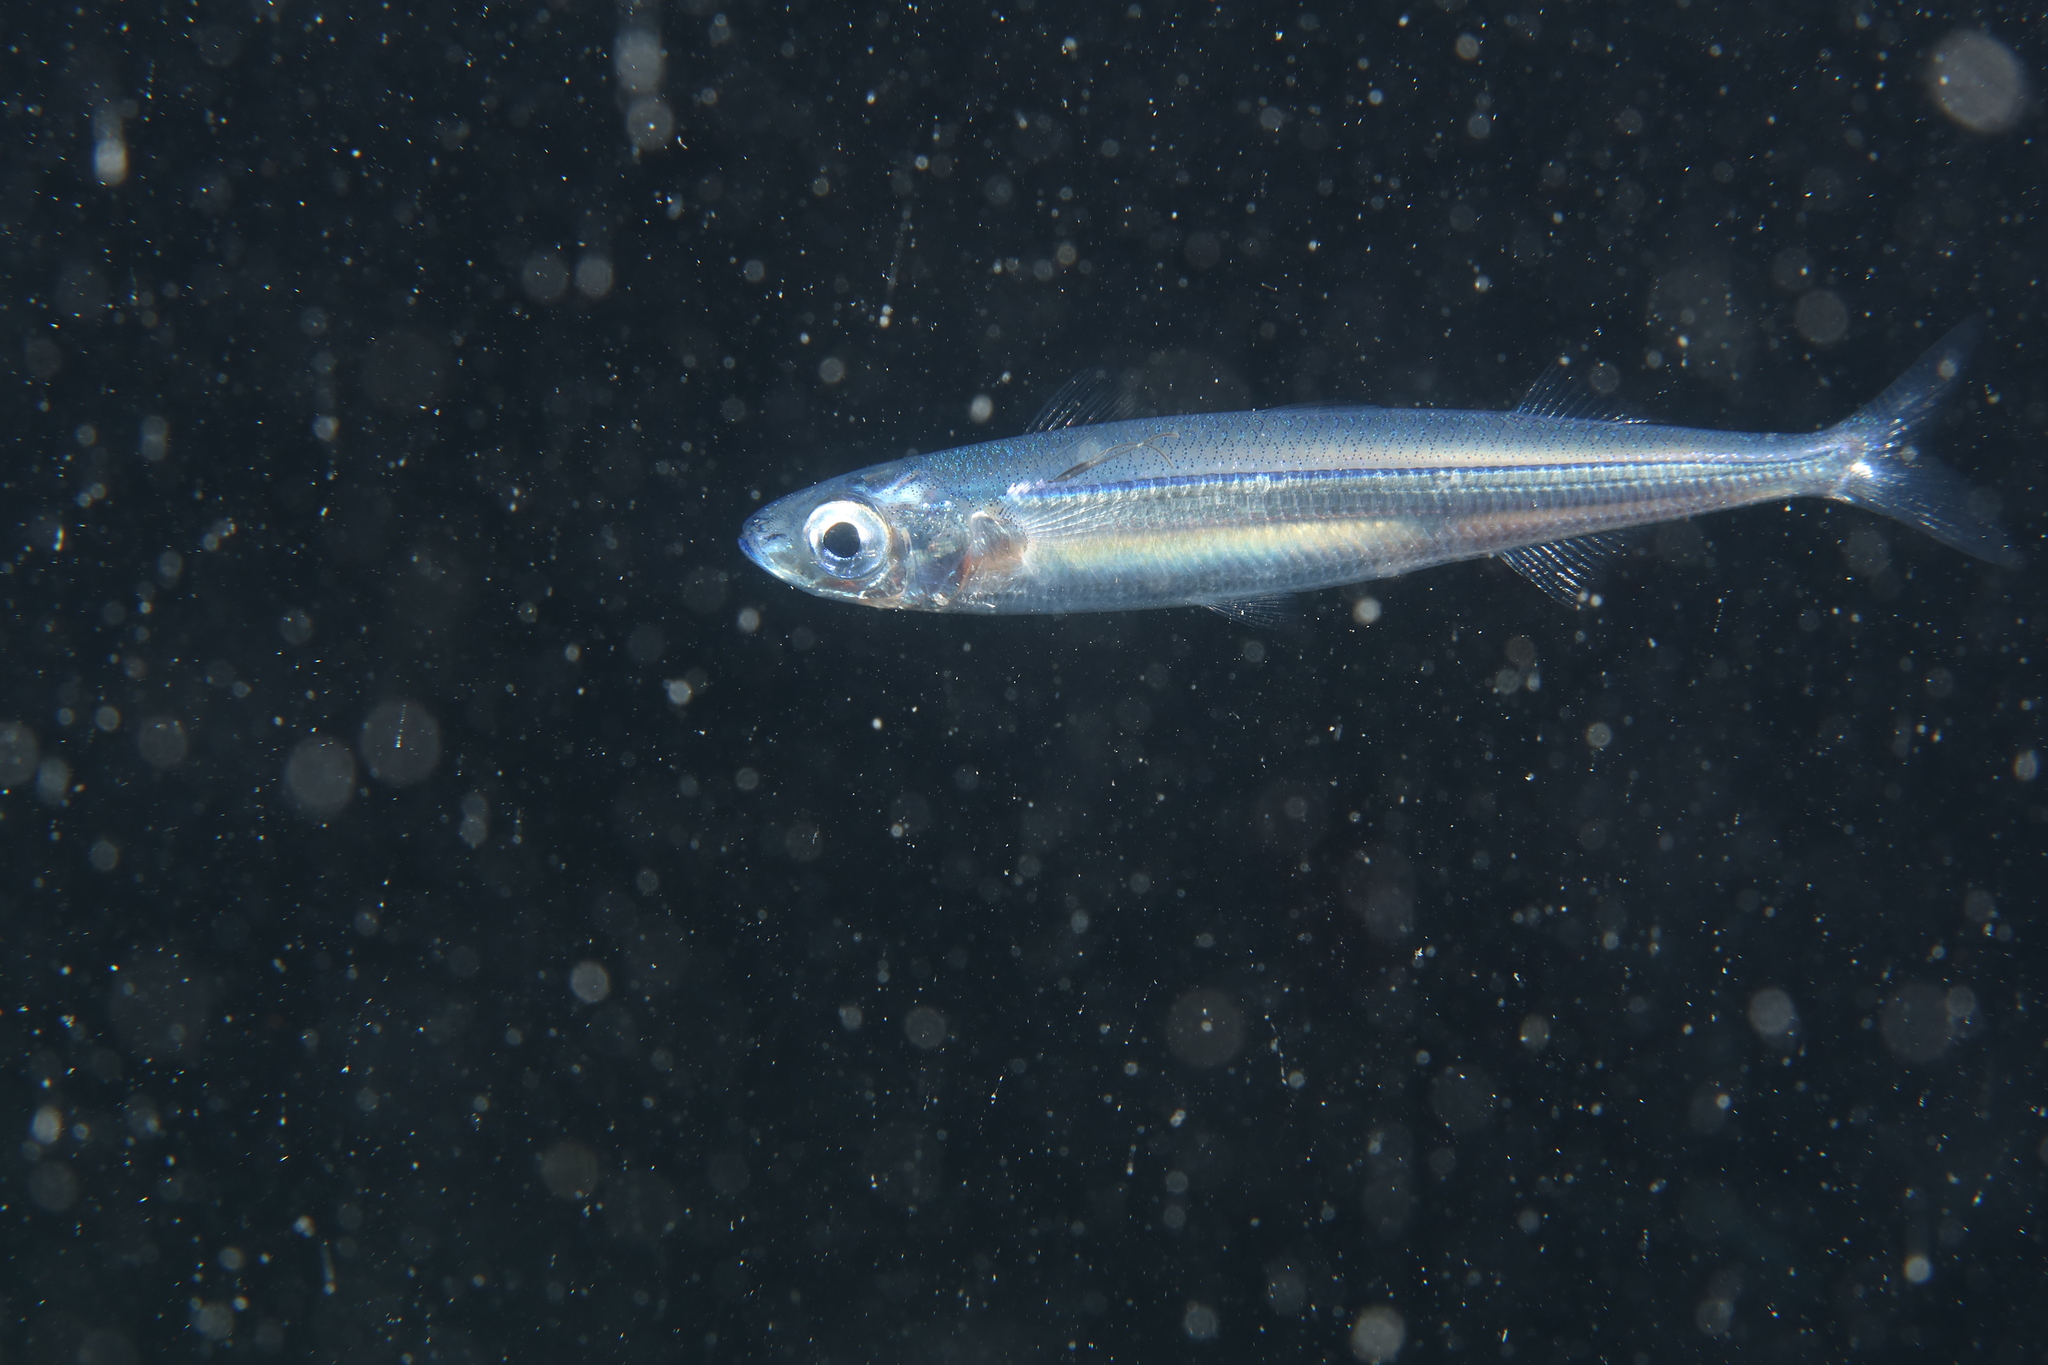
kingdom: Animalia
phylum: Chordata
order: Atheriniformes
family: Atherinidae
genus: Atherina
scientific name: Atherina hepsetus
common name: Mediterranean sand smelt
